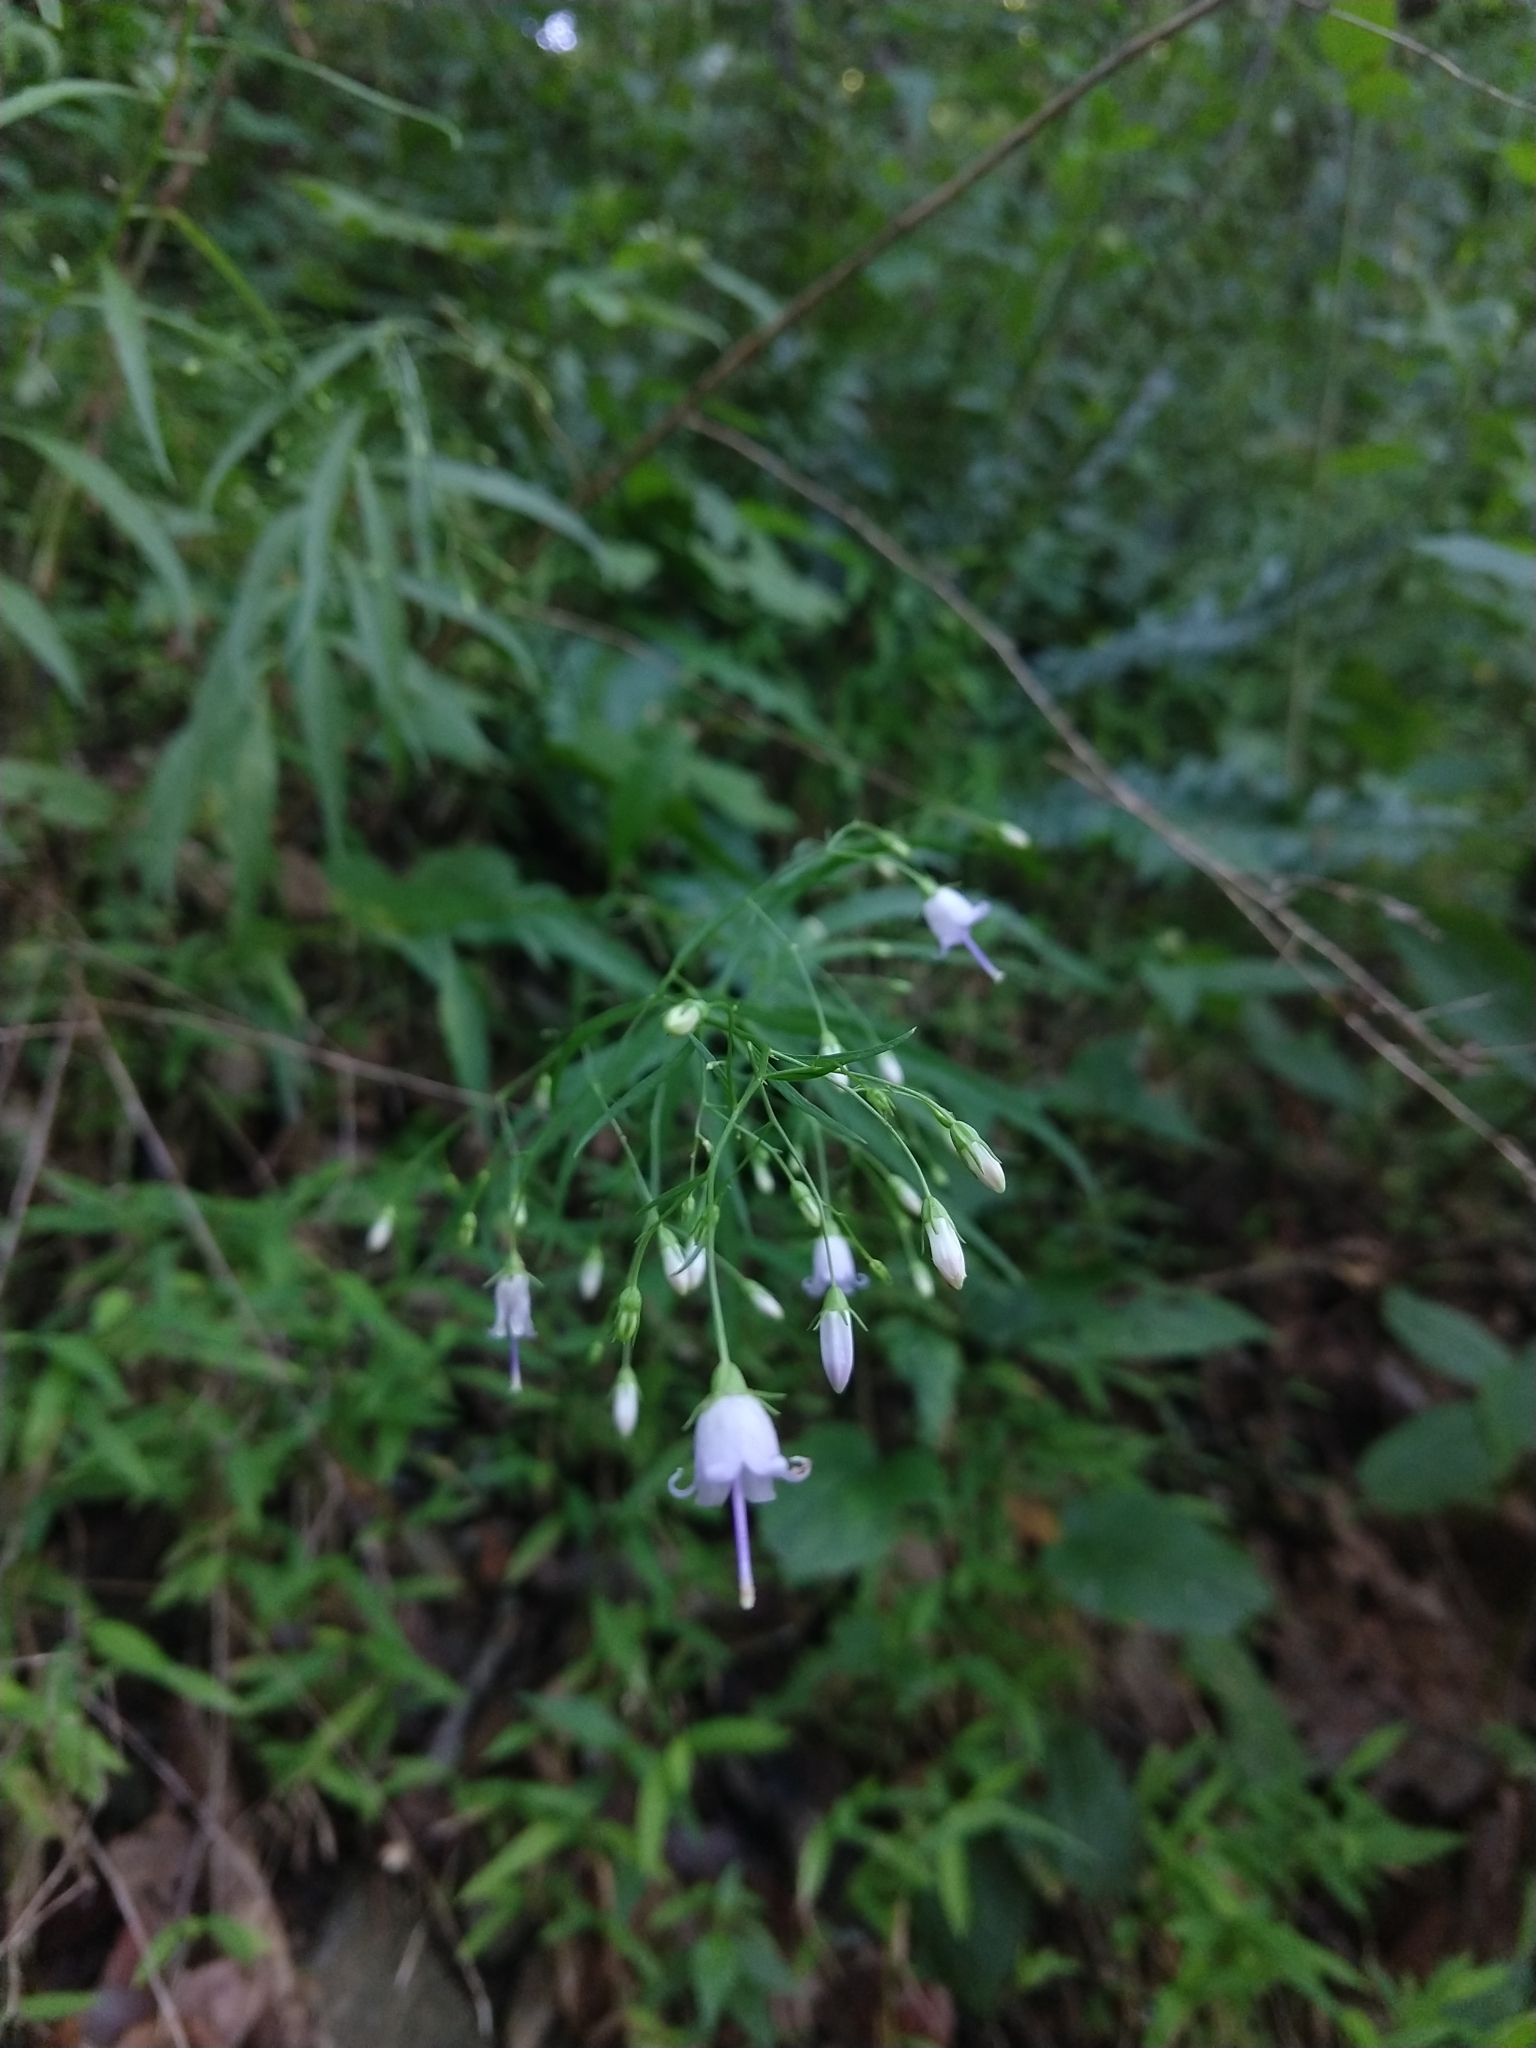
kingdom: Plantae
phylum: Tracheophyta
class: Magnoliopsida
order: Asterales
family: Campanulaceae
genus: Campanula
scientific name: Campanula divaricata
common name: Appalachian bellflower
